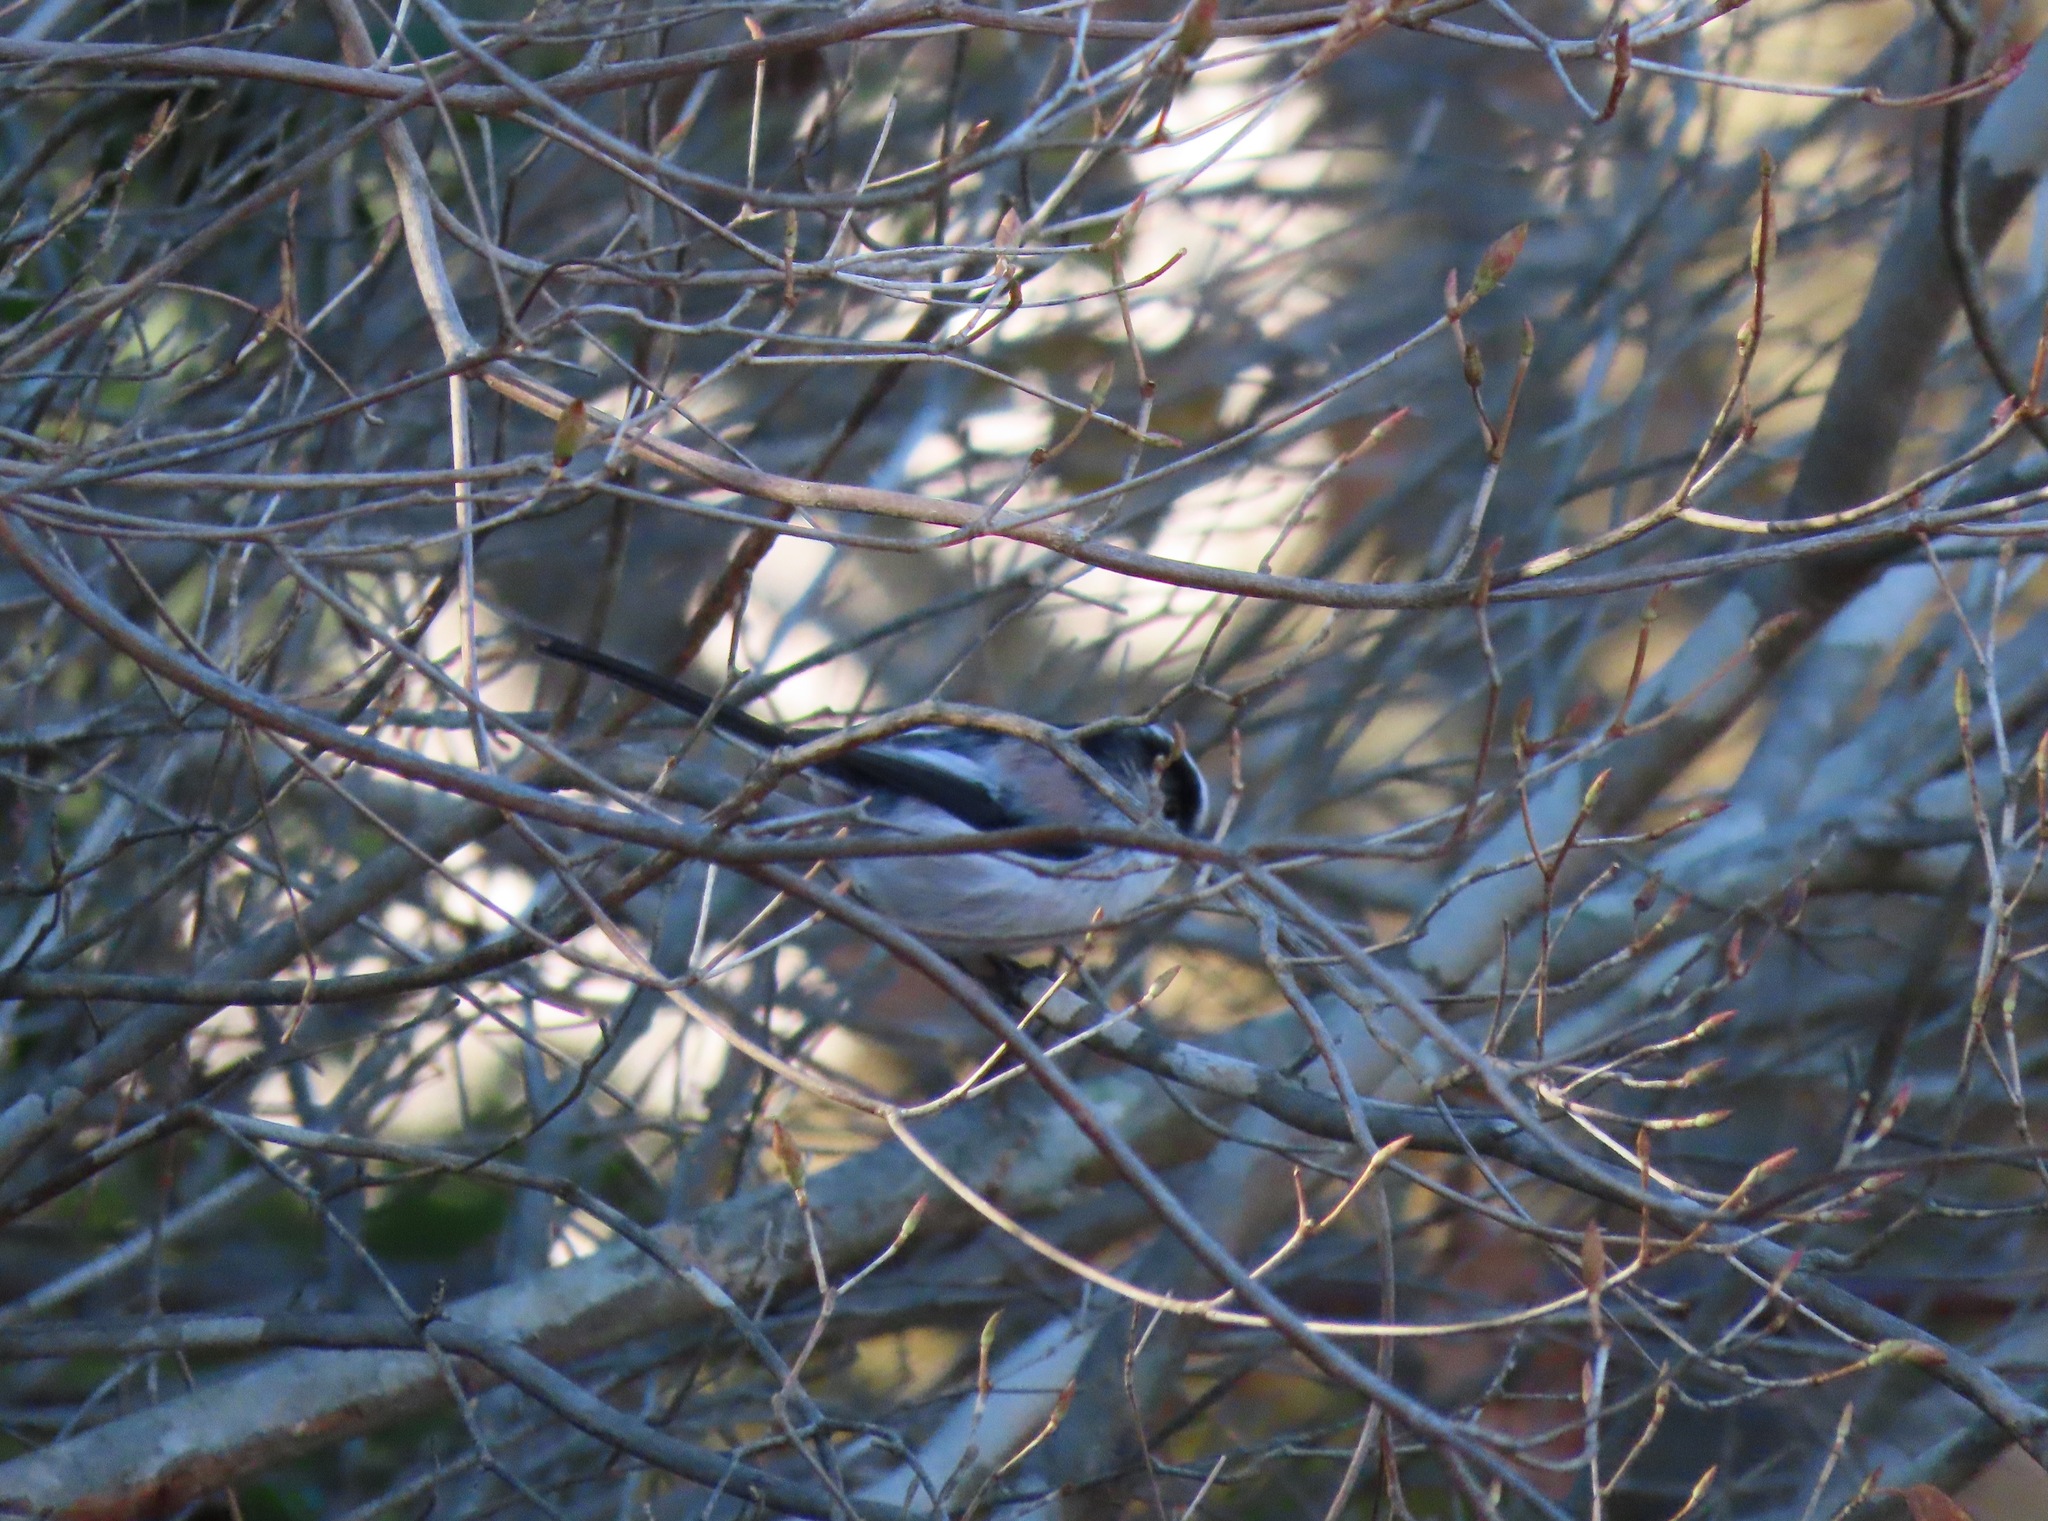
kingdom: Animalia
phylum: Chordata
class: Aves
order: Passeriformes
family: Aegithalidae
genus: Aegithalos
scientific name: Aegithalos caudatus
